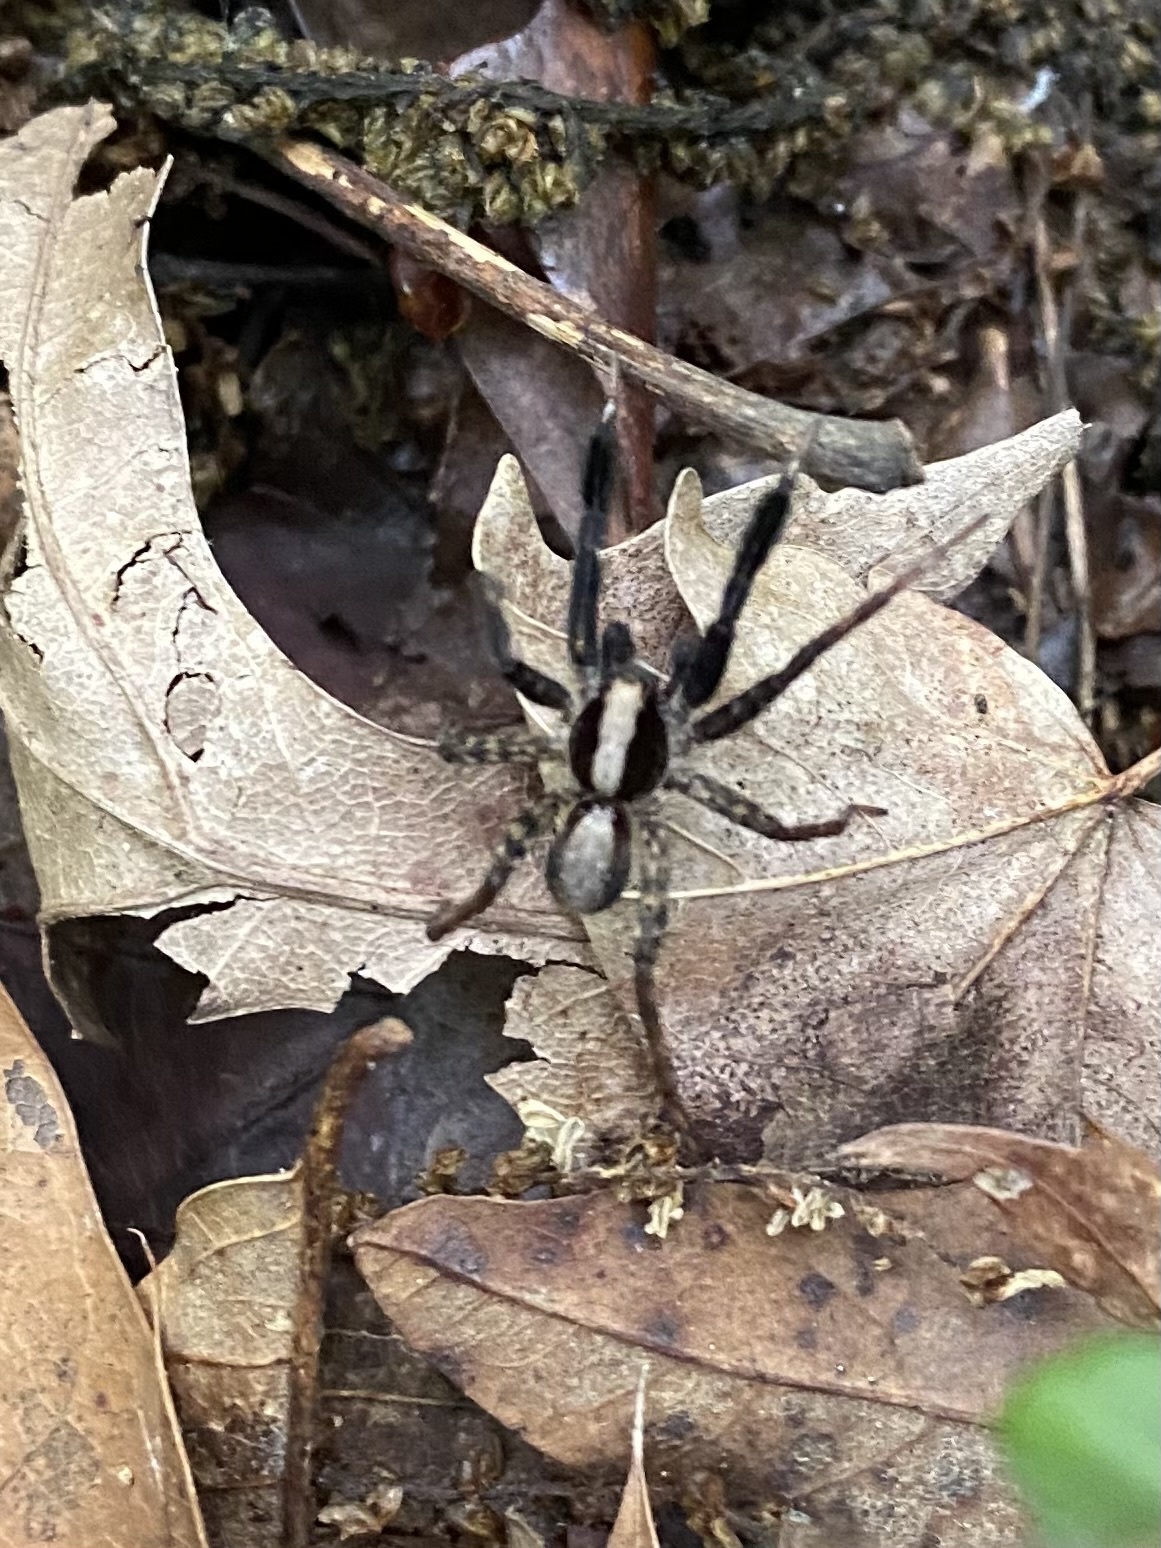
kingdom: Animalia
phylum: Arthropoda
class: Arachnida
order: Araneae
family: Lycosidae
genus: Schizocosa
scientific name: Schizocosa ocreata
